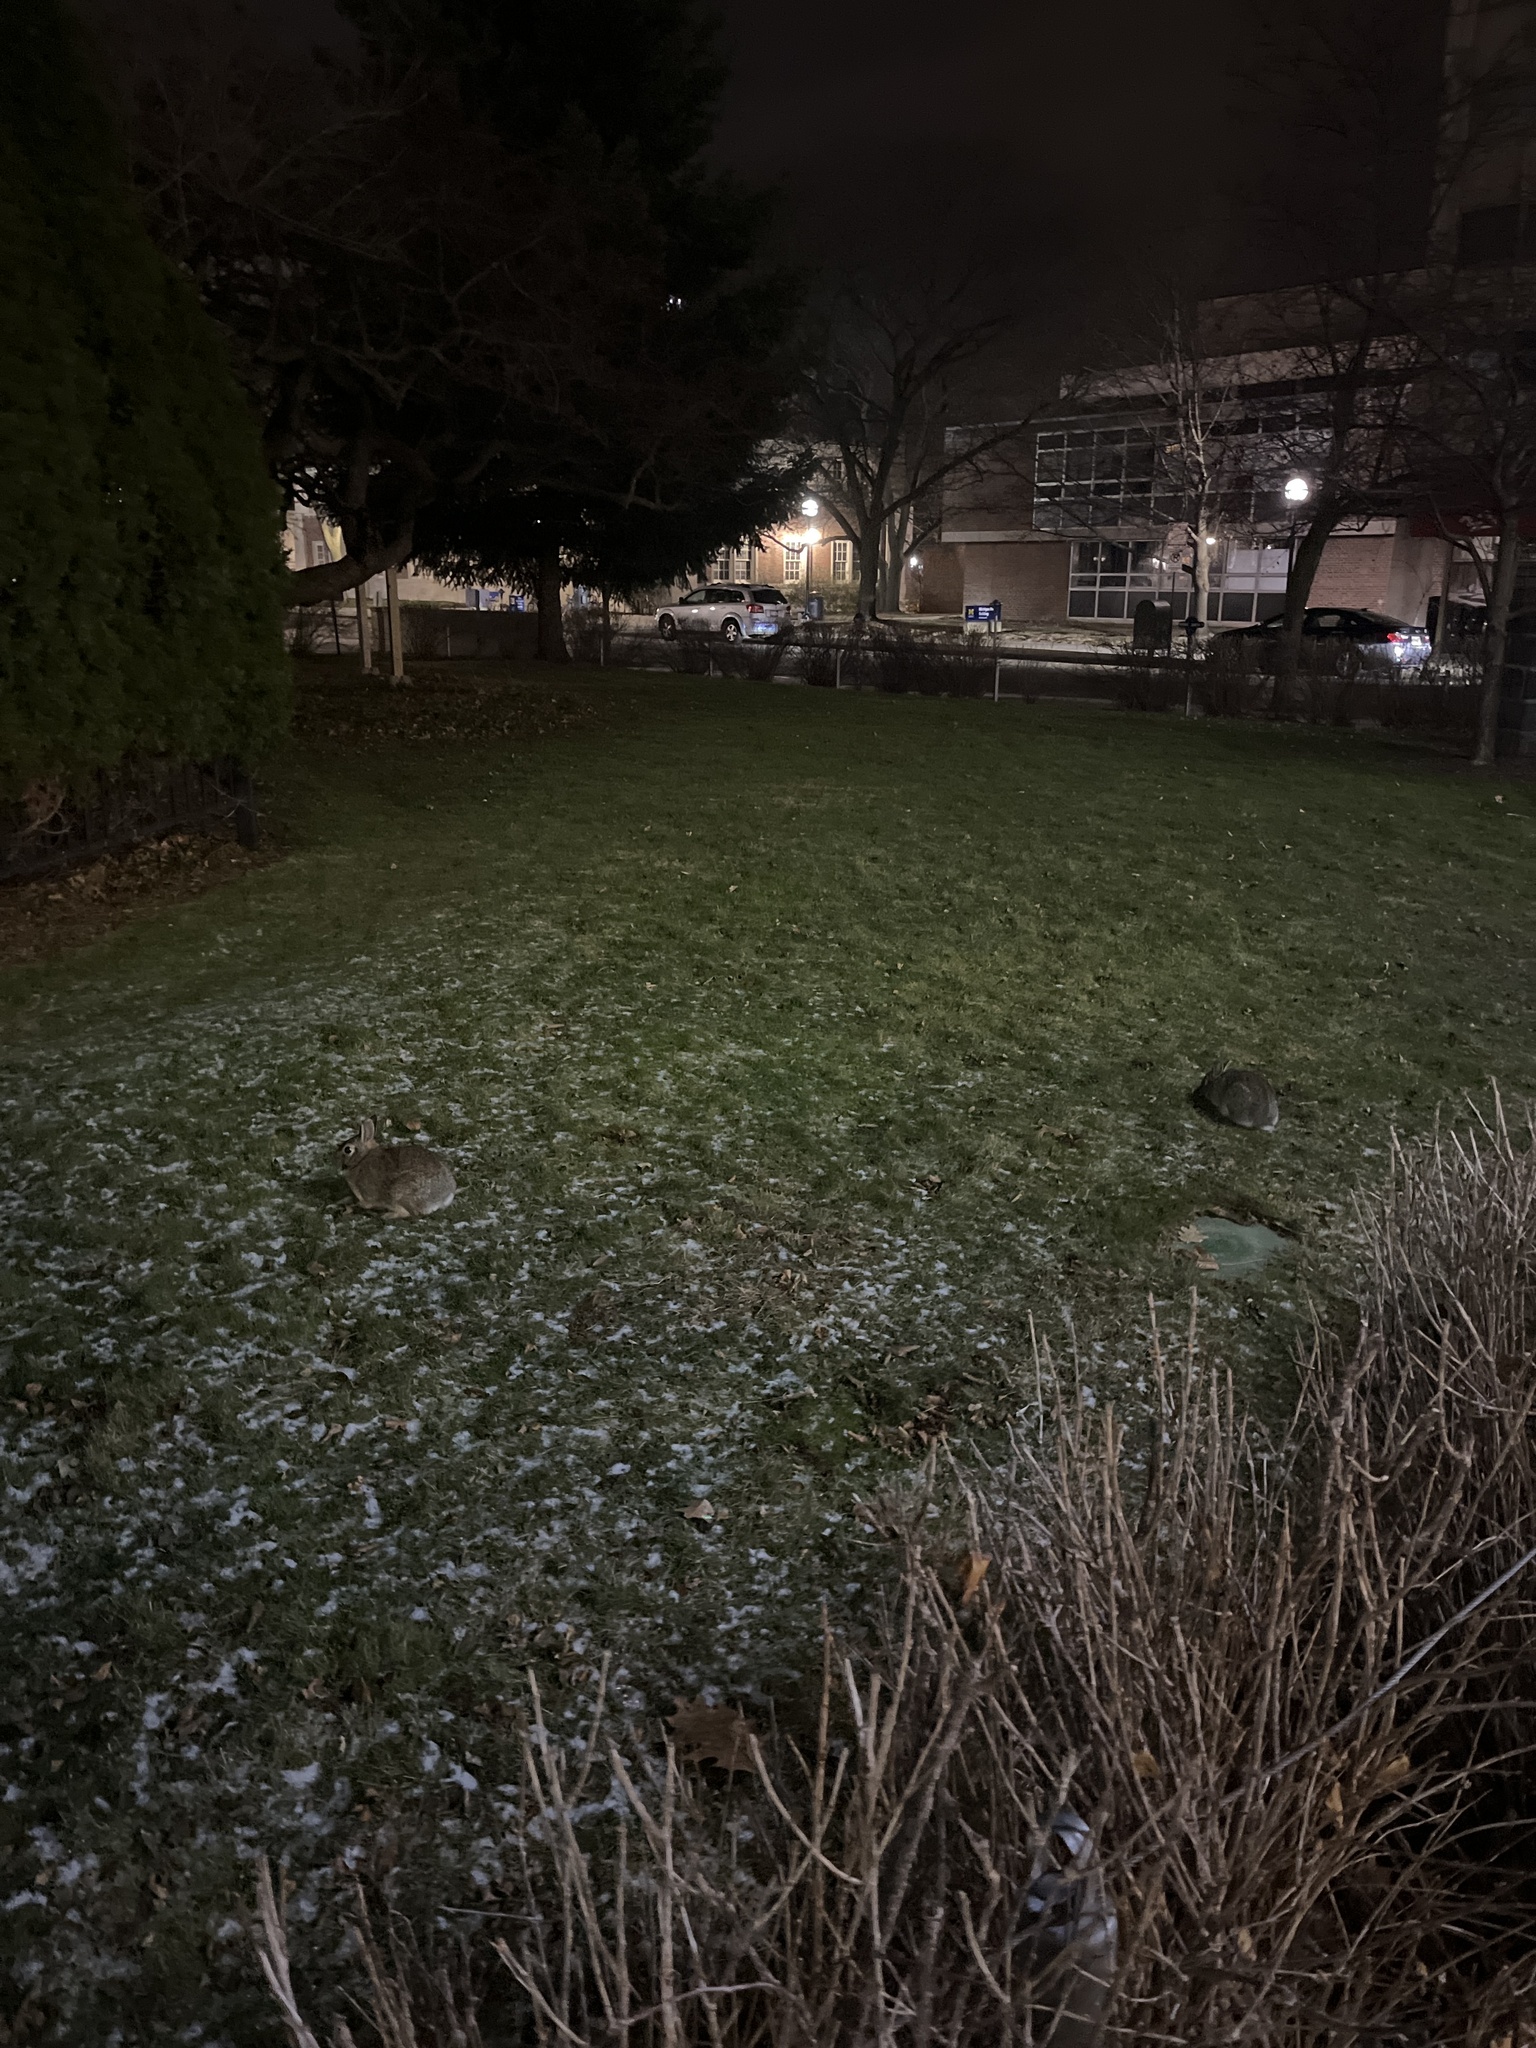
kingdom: Animalia
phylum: Chordata
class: Mammalia
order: Lagomorpha
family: Leporidae
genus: Sylvilagus
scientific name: Sylvilagus floridanus
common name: Eastern cottontail
